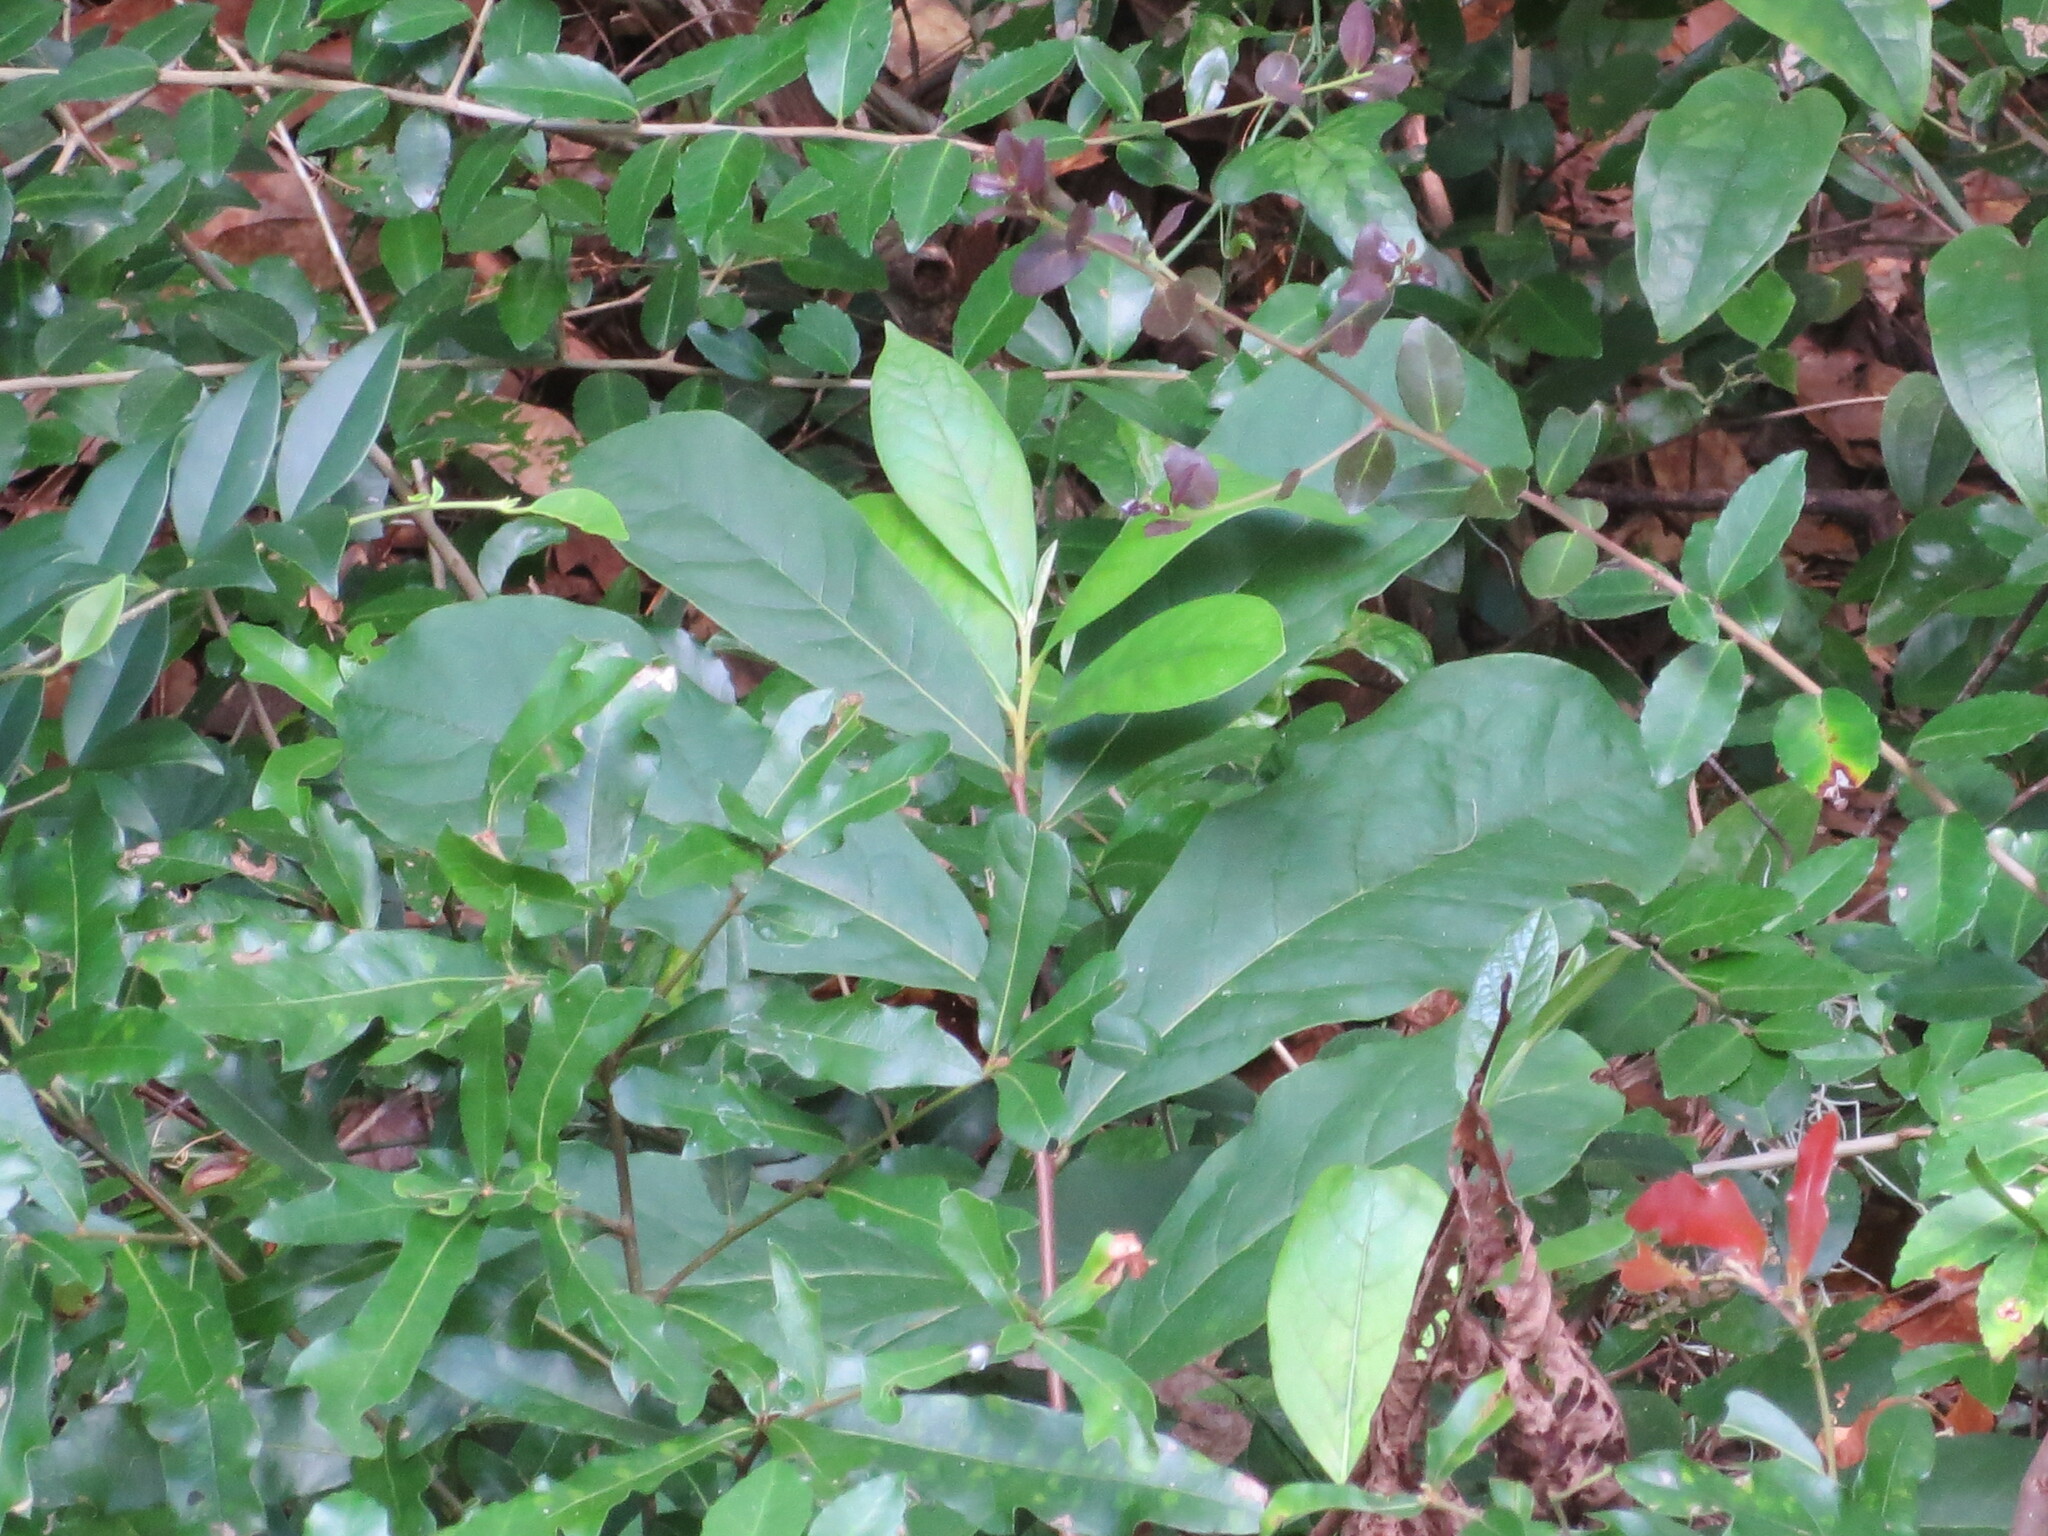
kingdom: Plantae
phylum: Tracheophyta
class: Magnoliopsida
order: Magnoliales
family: Annonaceae
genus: Asimina
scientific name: Asimina parviflora
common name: Dwarf pawpaw
